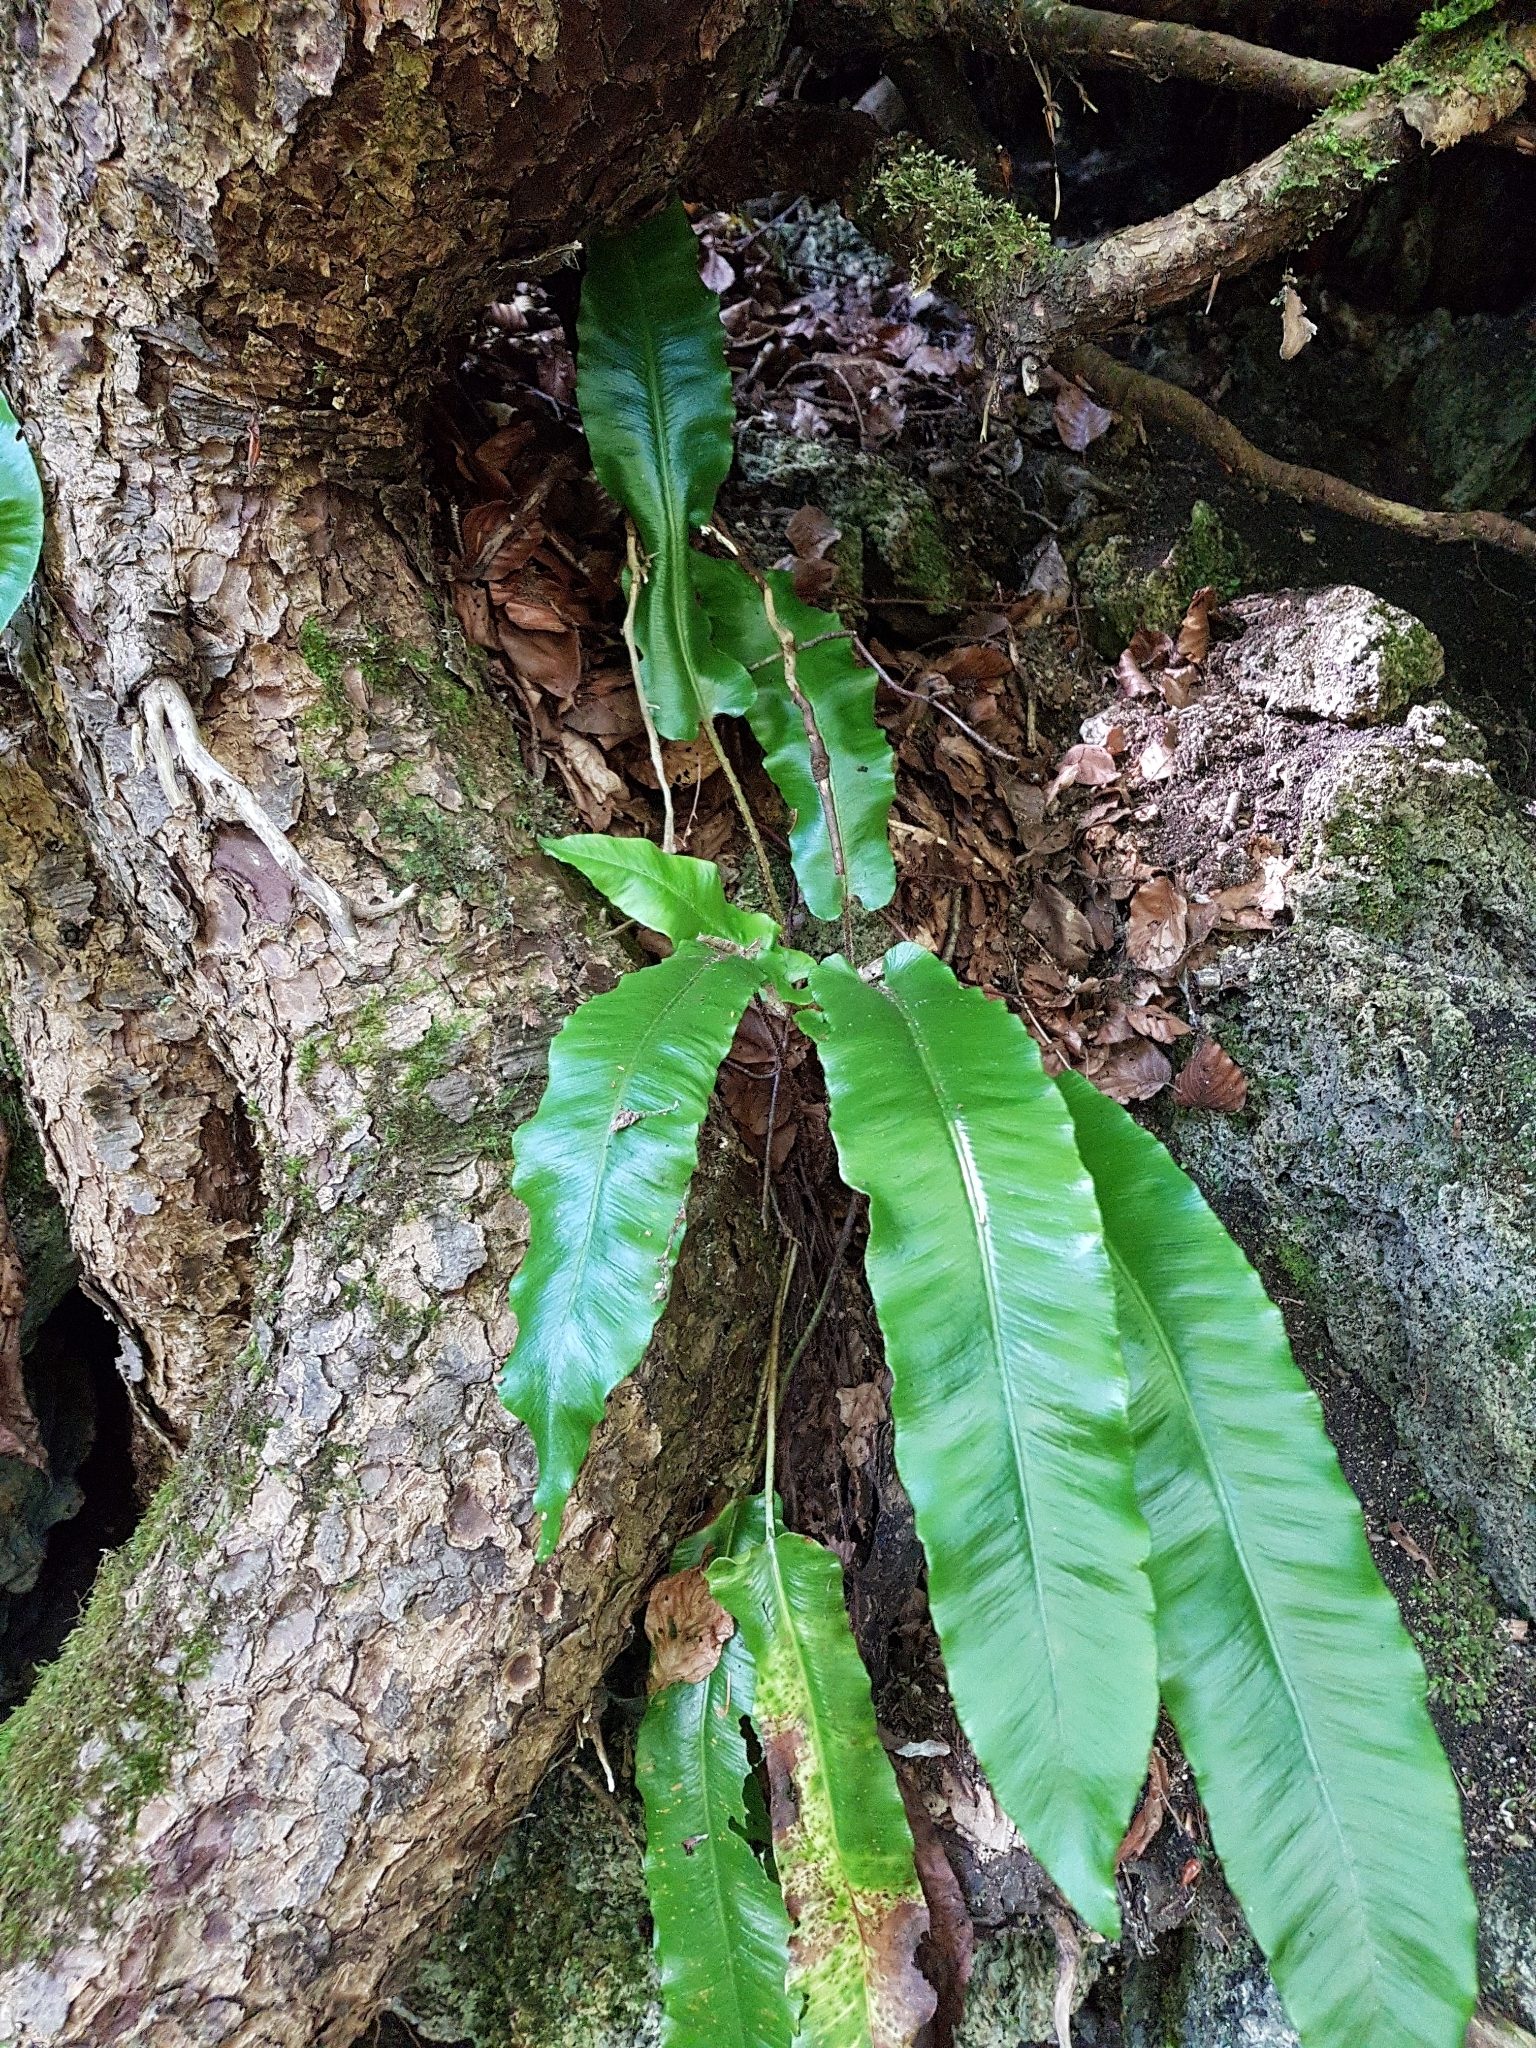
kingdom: Plantae
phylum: Tracheophyta
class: Polypodiopsida
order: Polypodiales
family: Aspleniaceae
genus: Asplenium
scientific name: Asplenium scolopendrium
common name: Hart's-tongue fern
